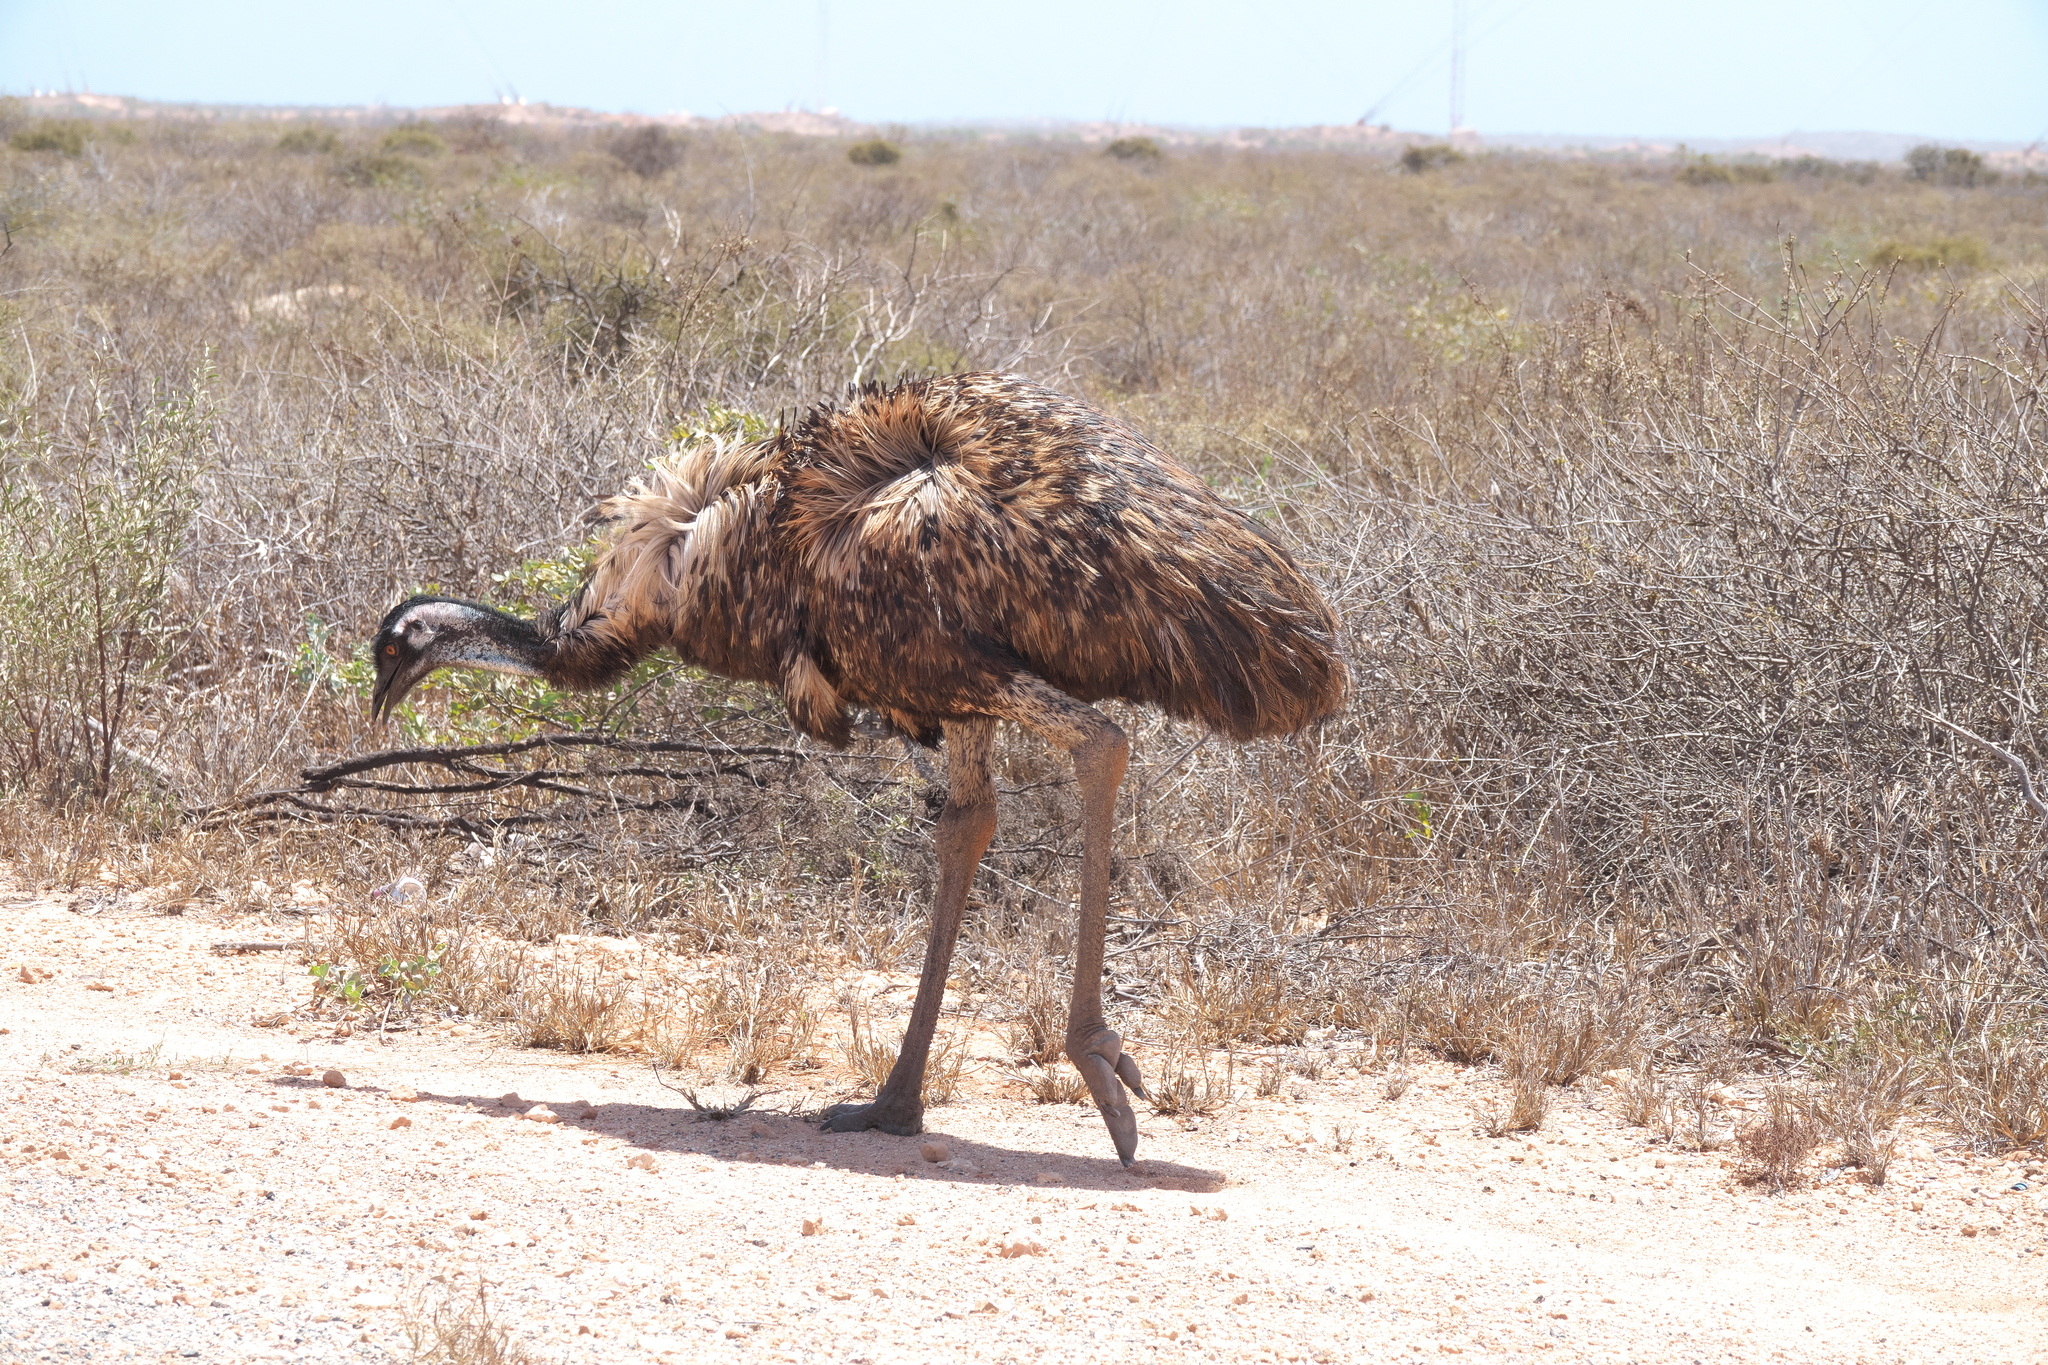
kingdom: Animalia
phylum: Chordata
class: Aves
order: Casuariiformes
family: Dromaiidae
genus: Dromaius
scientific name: Dromaius novaehollandiae
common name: Emu
